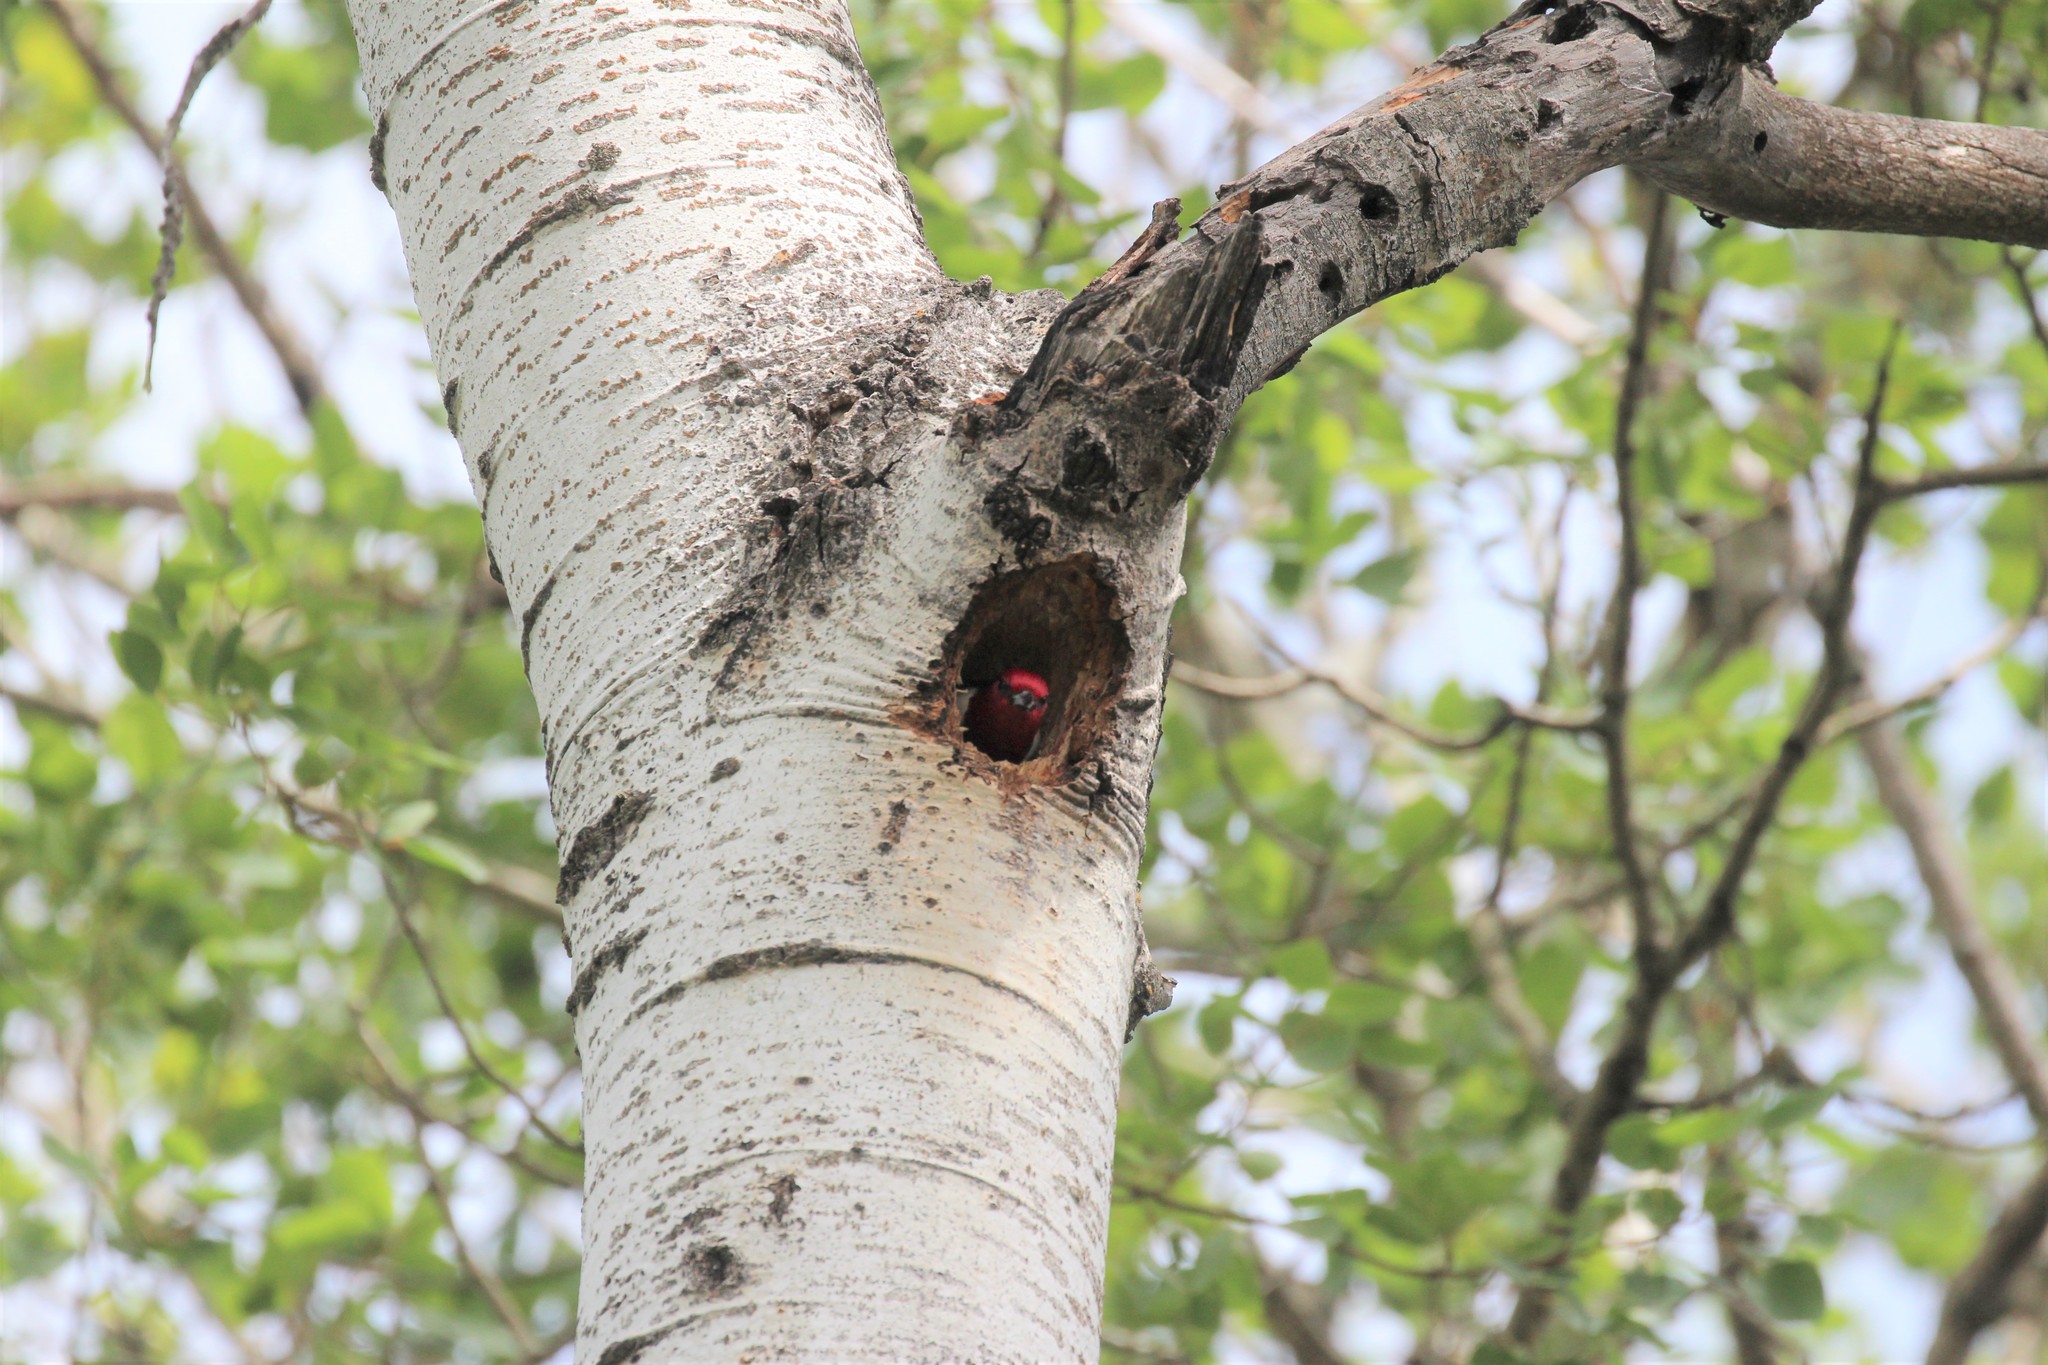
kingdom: Animalia
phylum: Chordata
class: Aves
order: Piciformes
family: Picidae
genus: Melanerpes
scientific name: Melanerpes erythrocephalus
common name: Red-headed woodpecker
